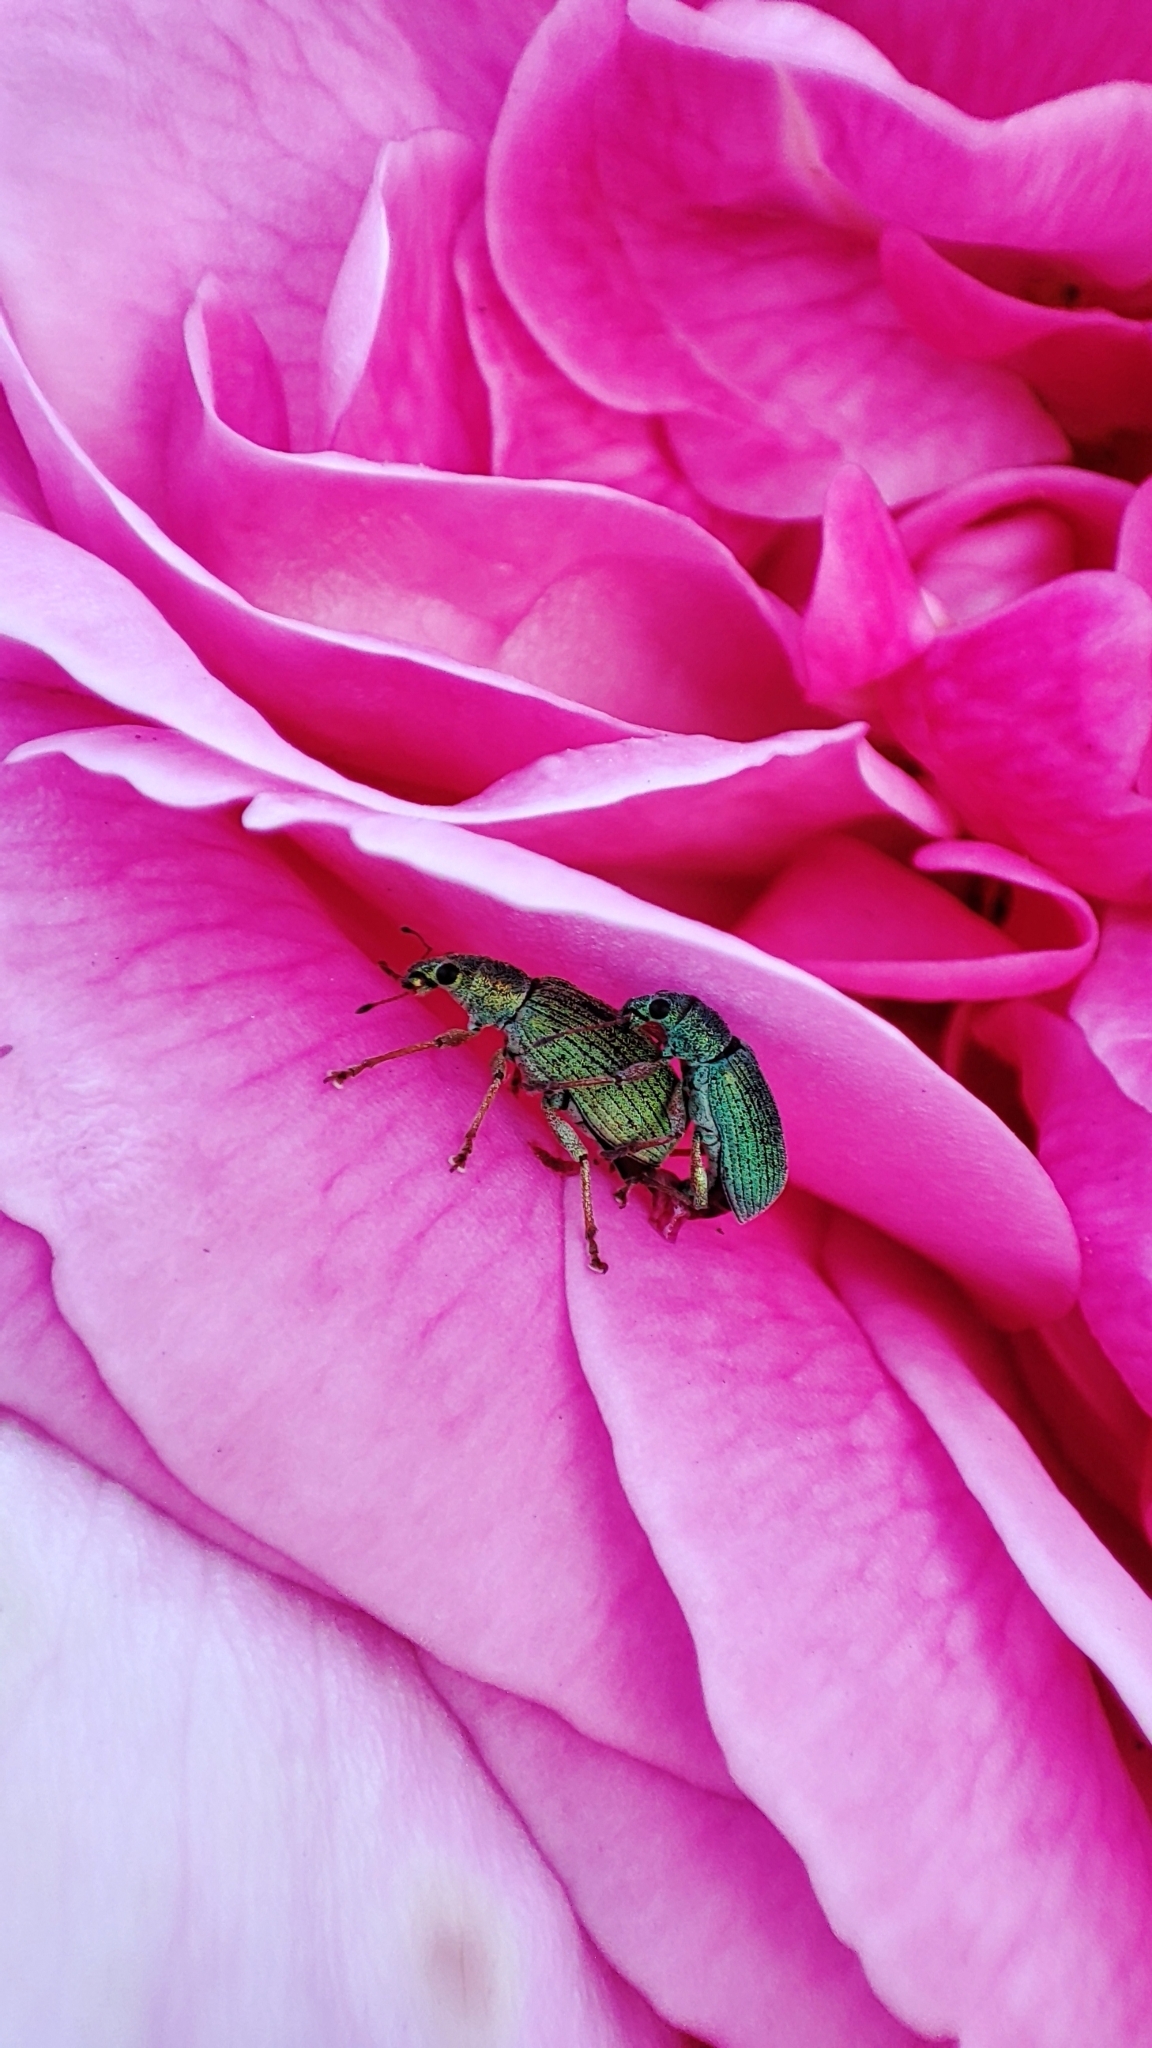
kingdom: Animalia
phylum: Arthropoda
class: Insecta
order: Coleoptera
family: Curculionidae
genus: Polydrusus
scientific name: Polydrusus formosus
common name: Weevil
